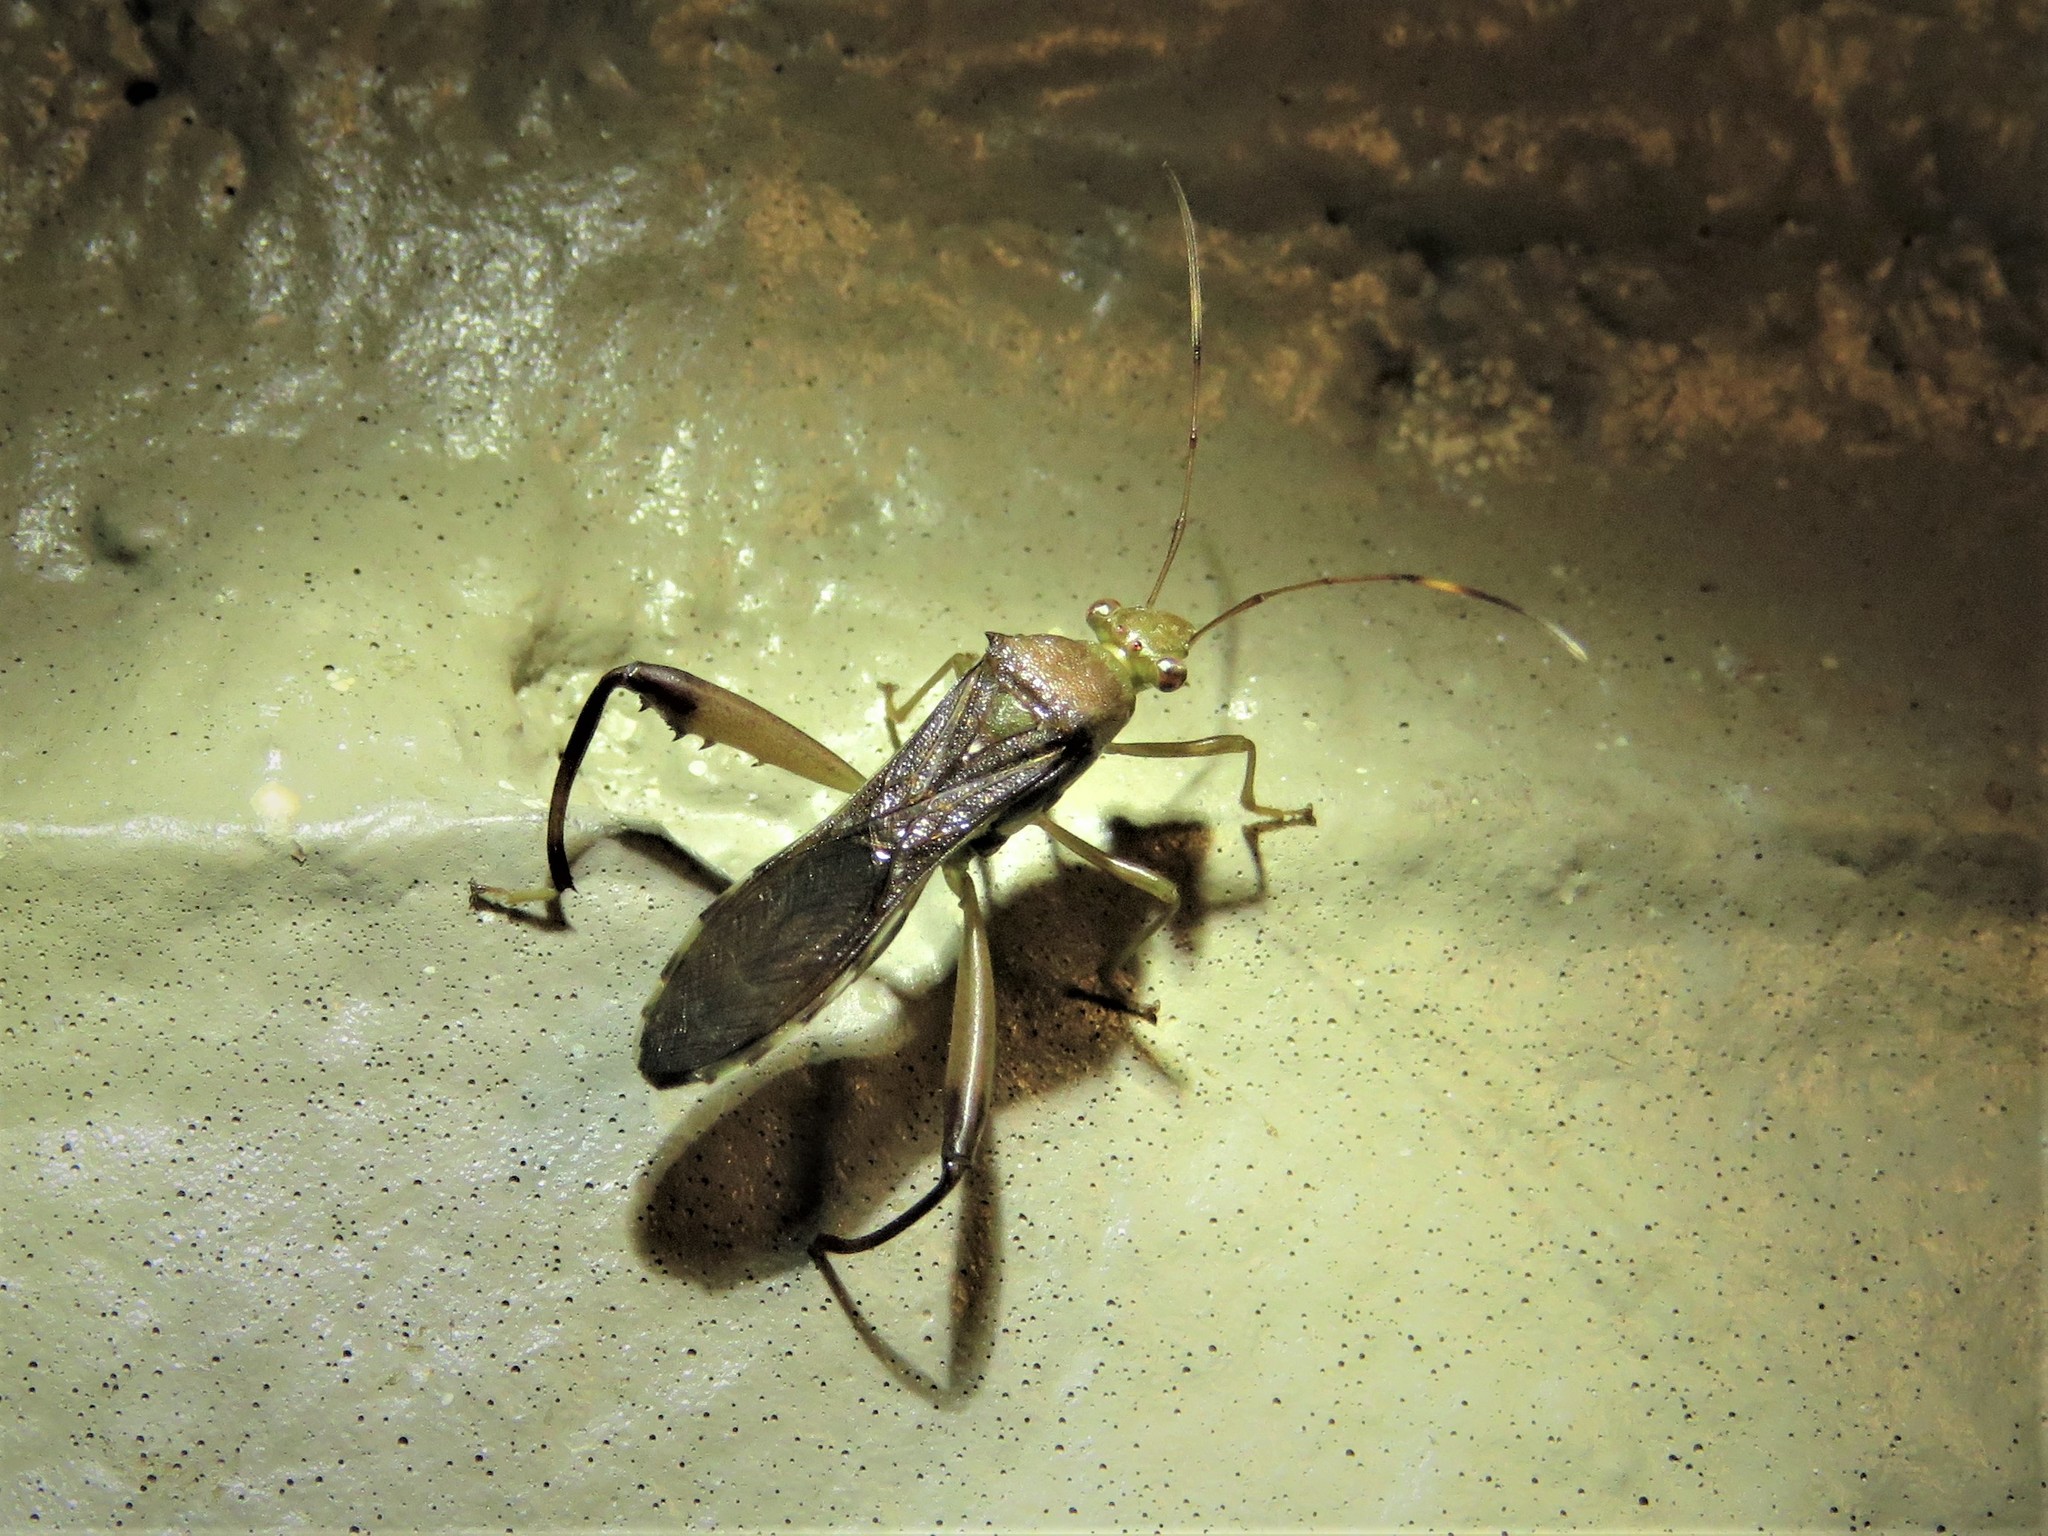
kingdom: Animalia
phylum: Arthropoda
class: Insecta
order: Hemiptera
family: Alydidae
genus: Hyalymenus
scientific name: Hyalymenus tarsatus
